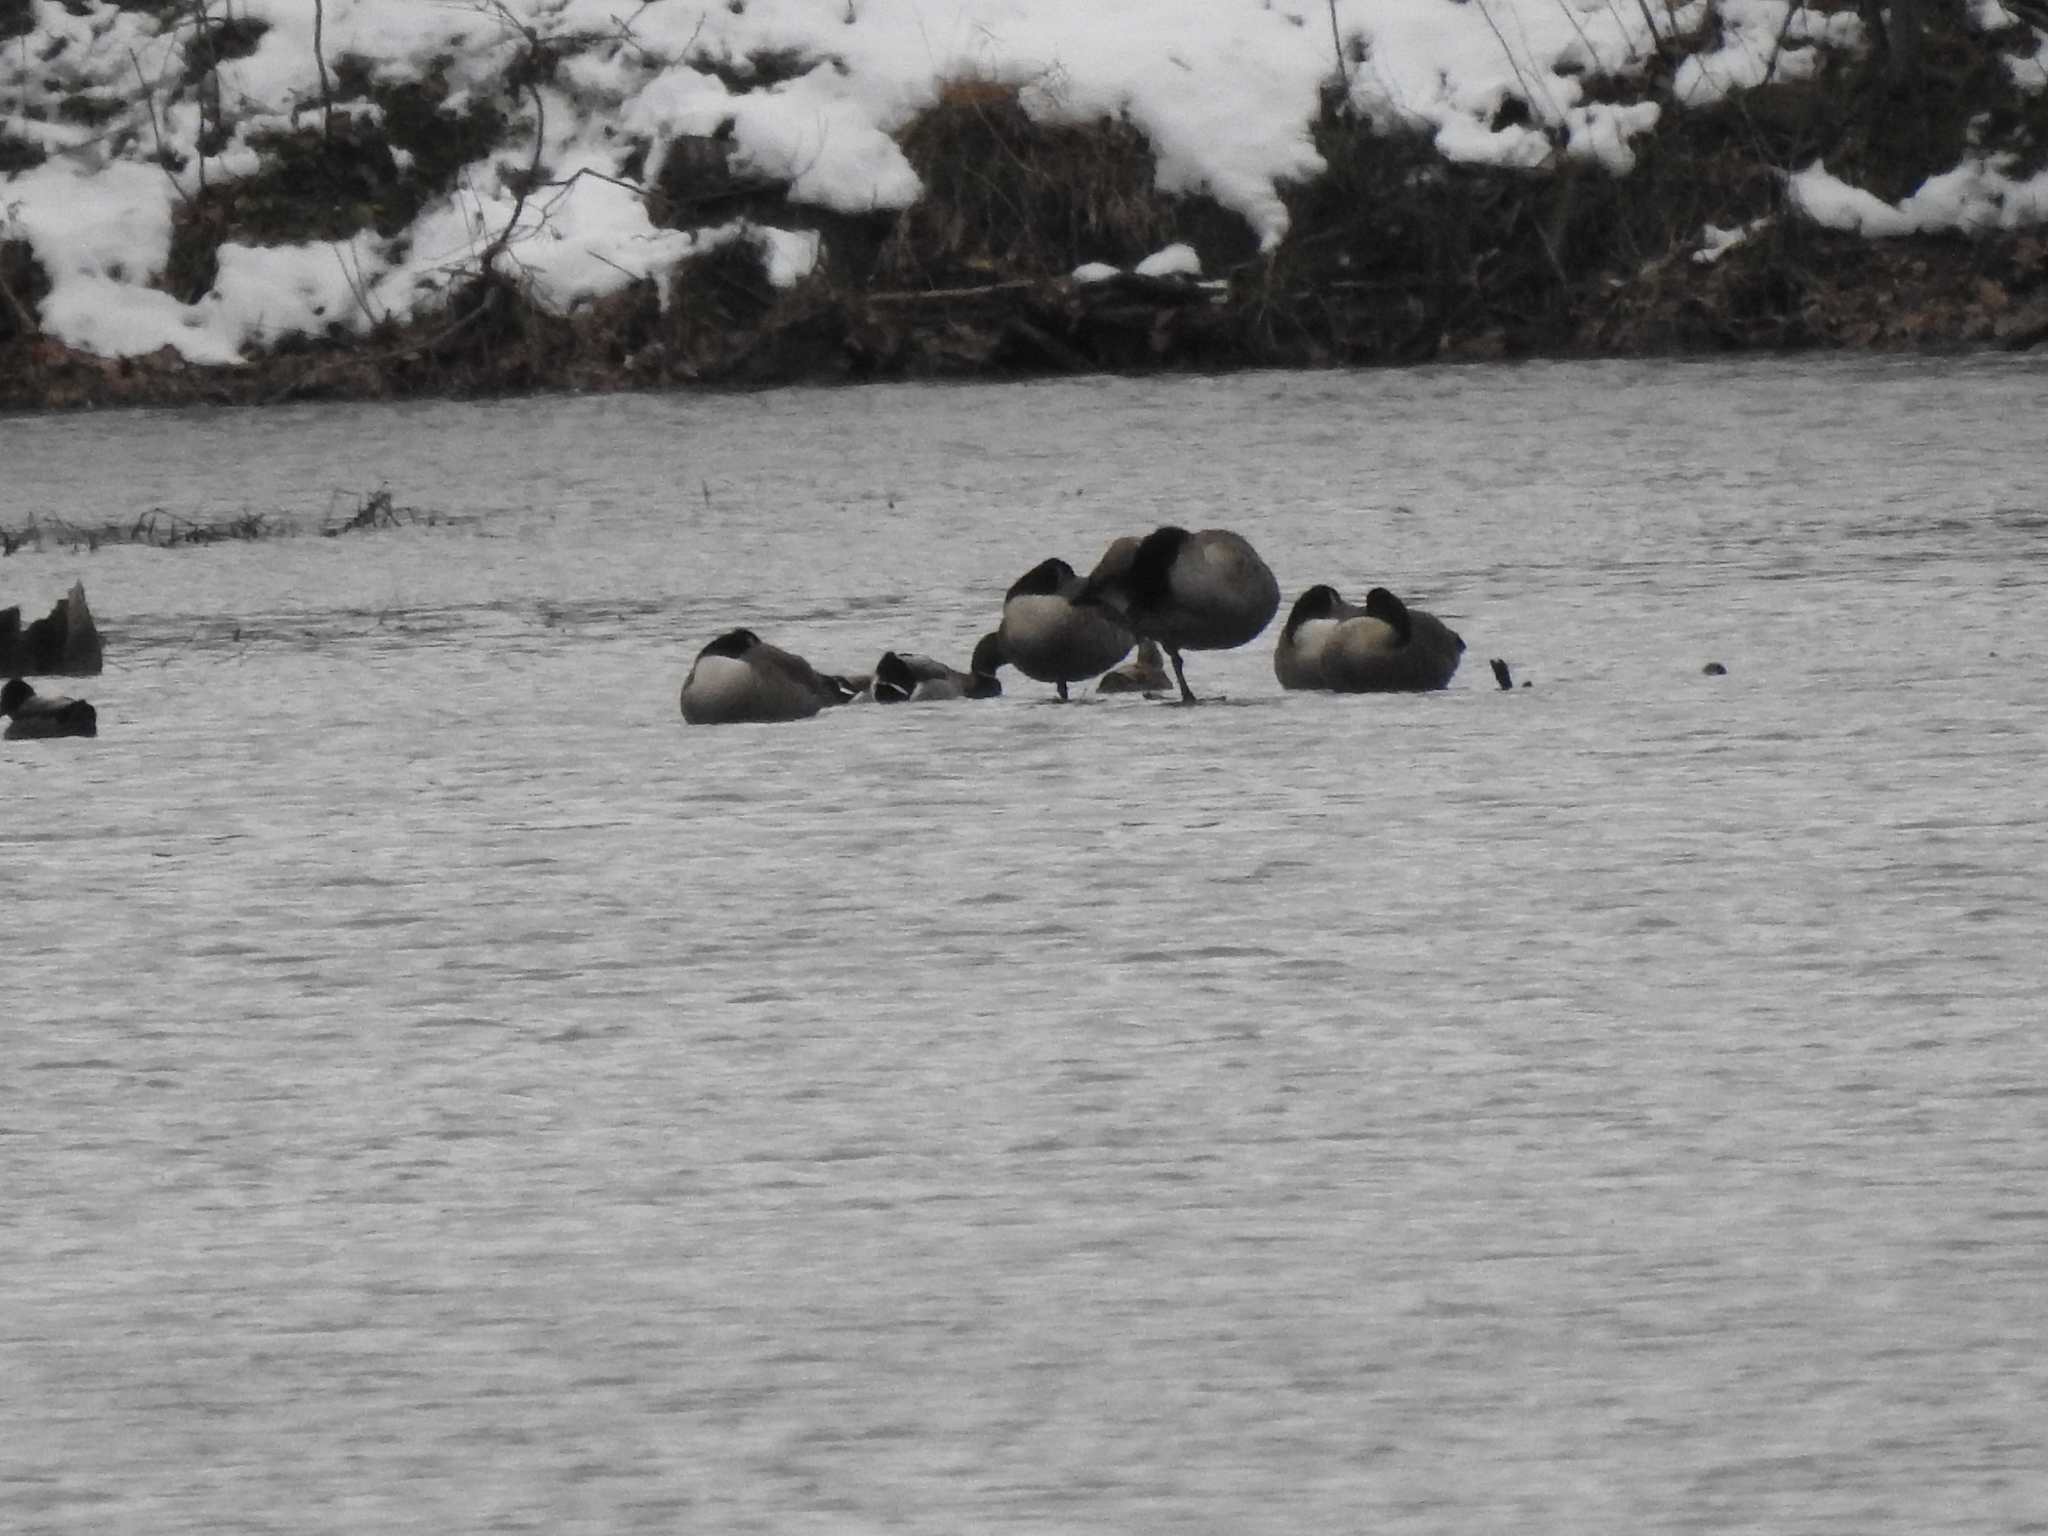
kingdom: Animalia
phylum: Chordata
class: Aves
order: Anseriformes
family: Anatidae
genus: Branta
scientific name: Branta canadensis
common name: Canada goose
